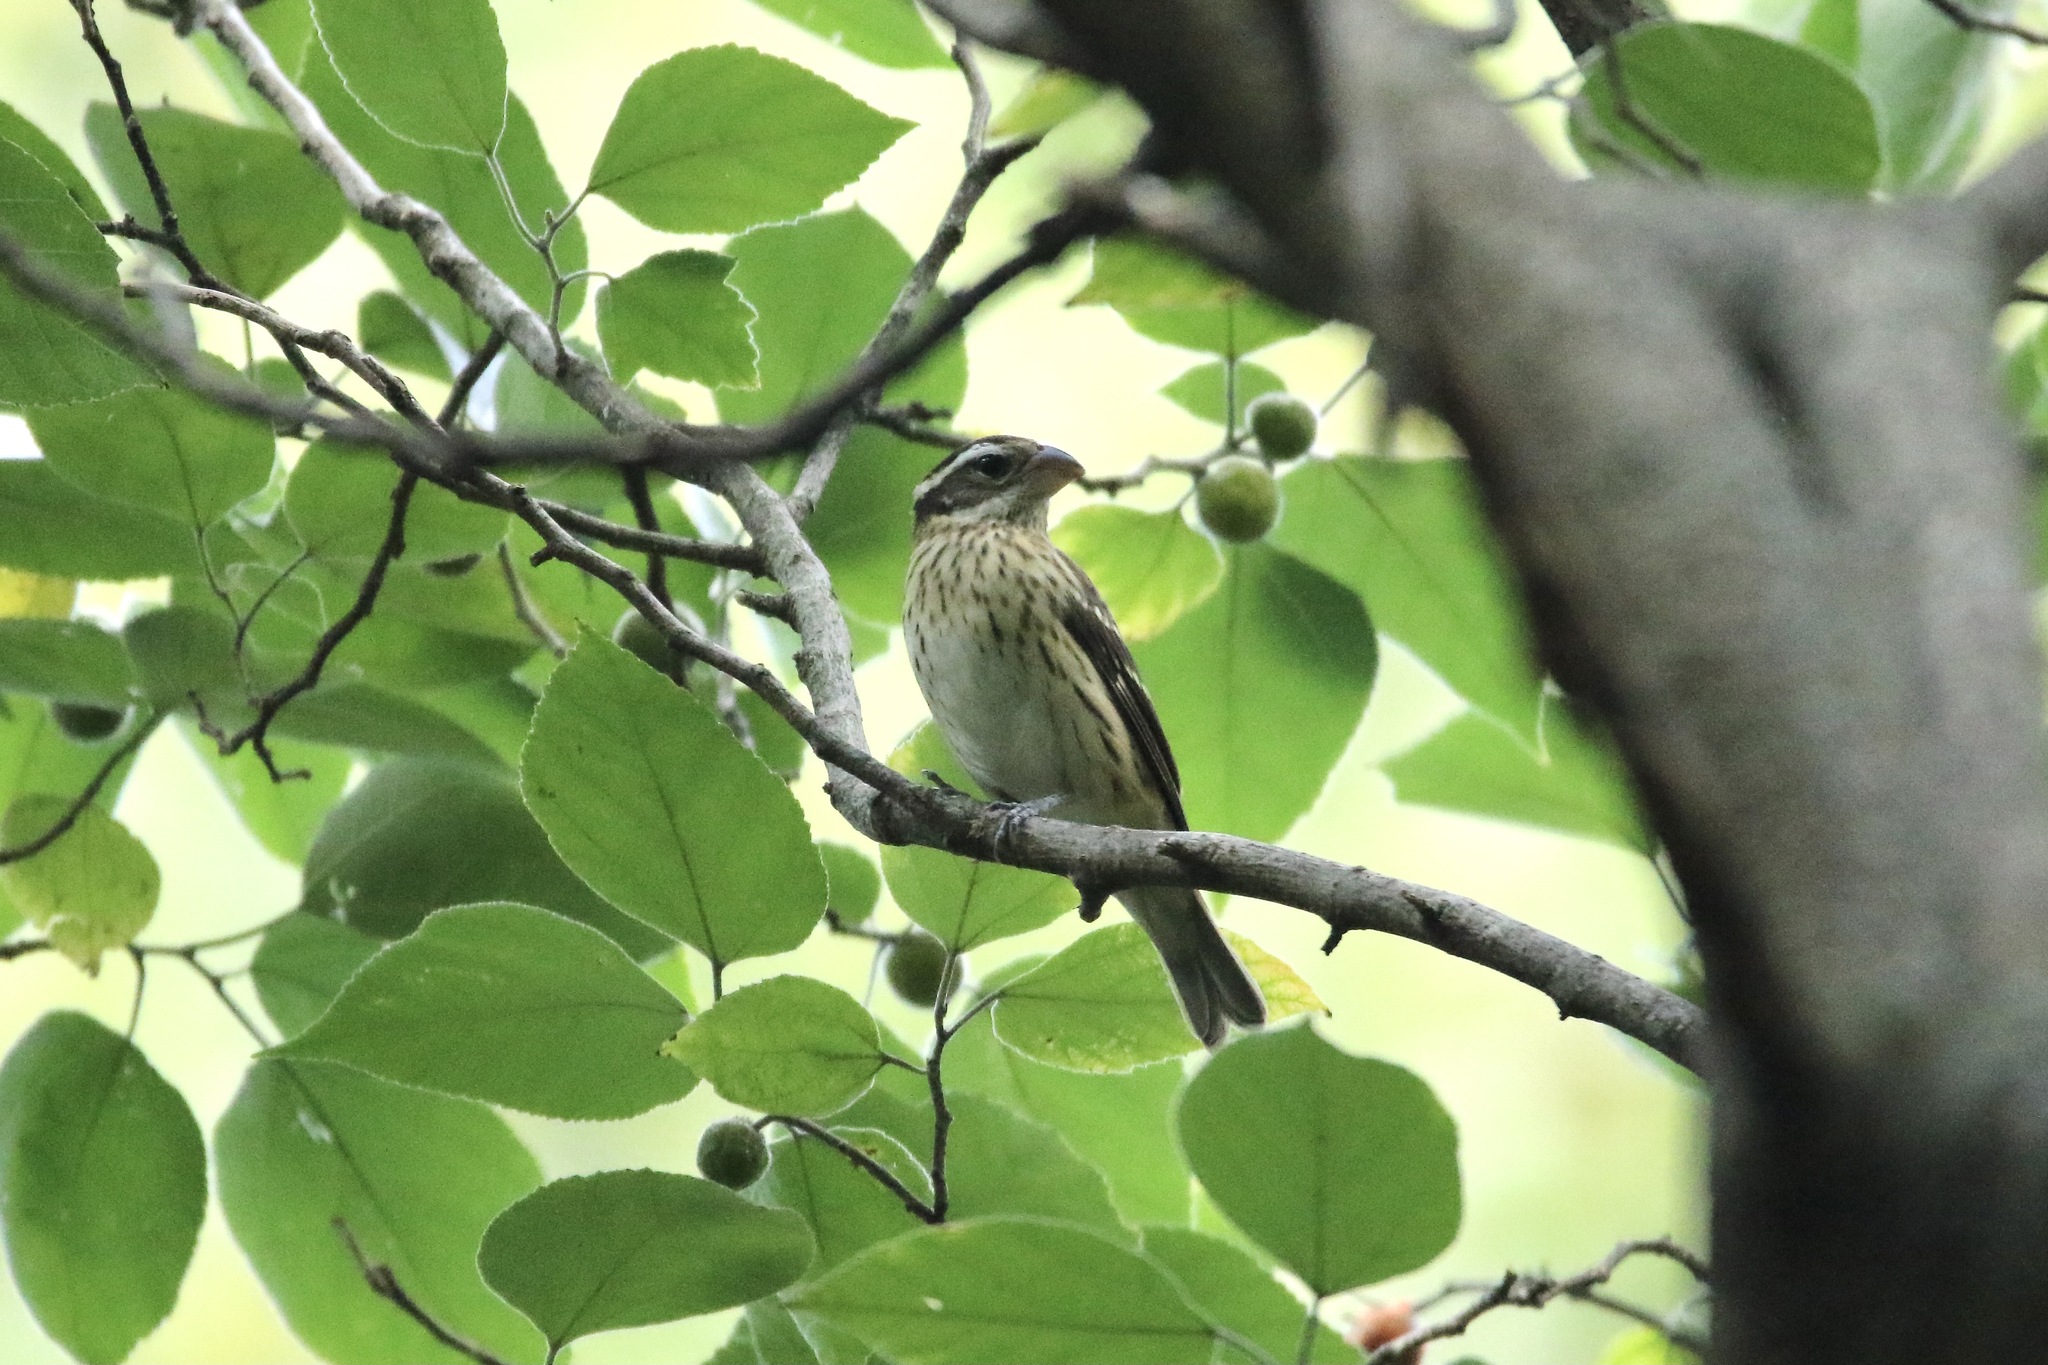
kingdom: Animalia
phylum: Chordata
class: Aves
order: Passeriformes
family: Cardinalidae
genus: Pheucticus
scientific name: Pheucticus ludovicianus
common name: Rose-breasted grosbeak
